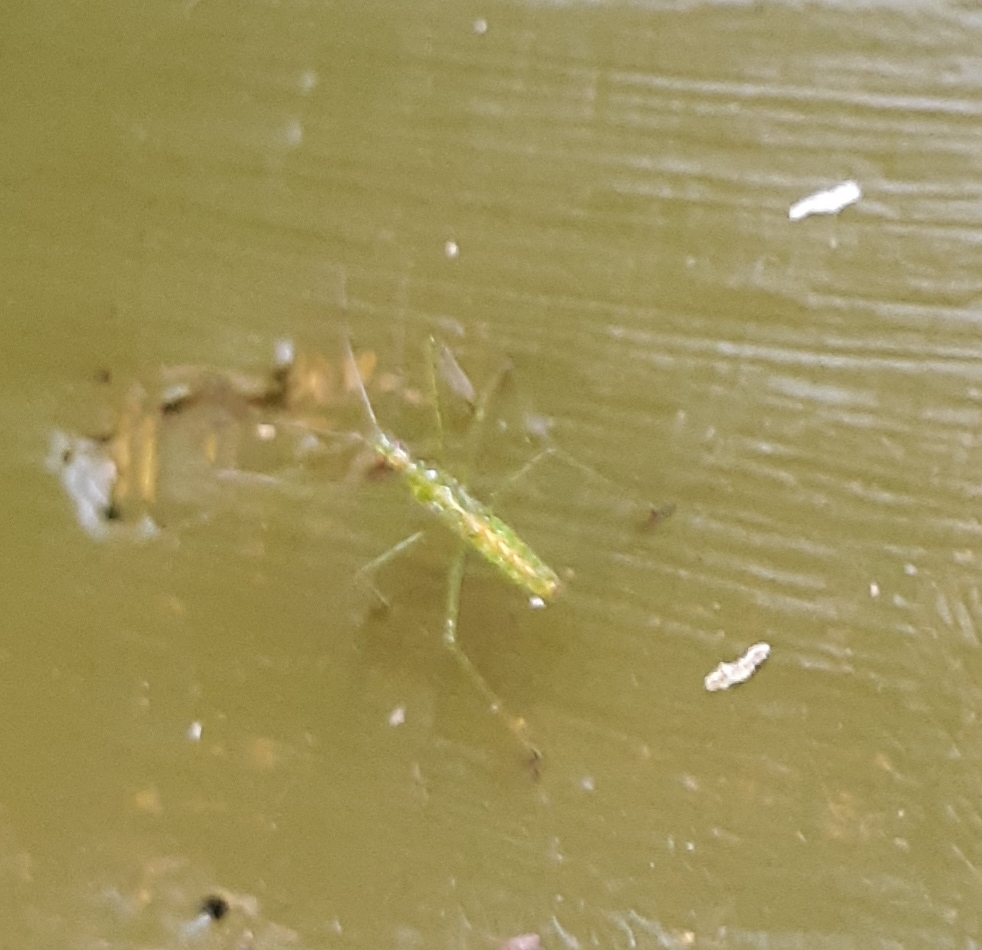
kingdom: Animalia
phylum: Arthropoda
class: Insecta
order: Hemiptera
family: Reduviidae
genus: Zelus
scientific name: Zelus luridus
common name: Pale green assassin bug
